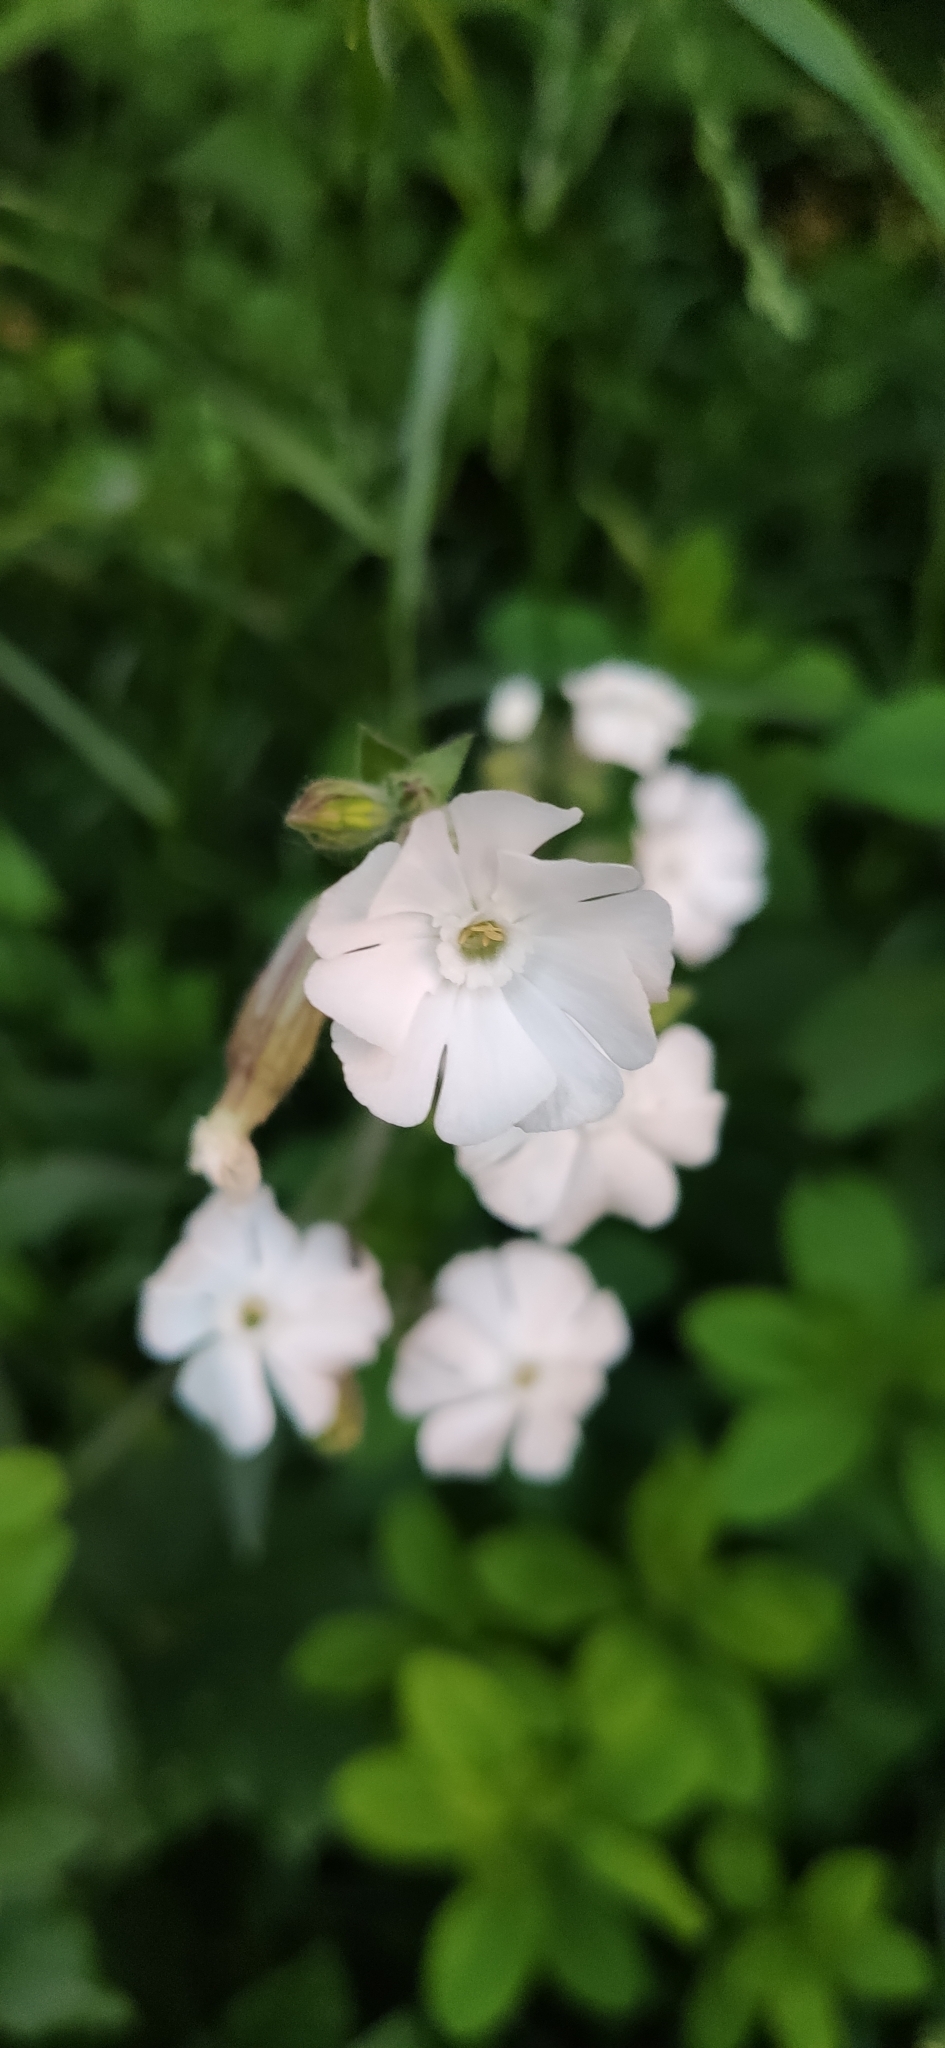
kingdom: Plantae
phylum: Tracheophyta
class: Magnoliopsida
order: Caryophyllales
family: Caryophyllaceae
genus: Silene
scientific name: Silene latifolia
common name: White campion
